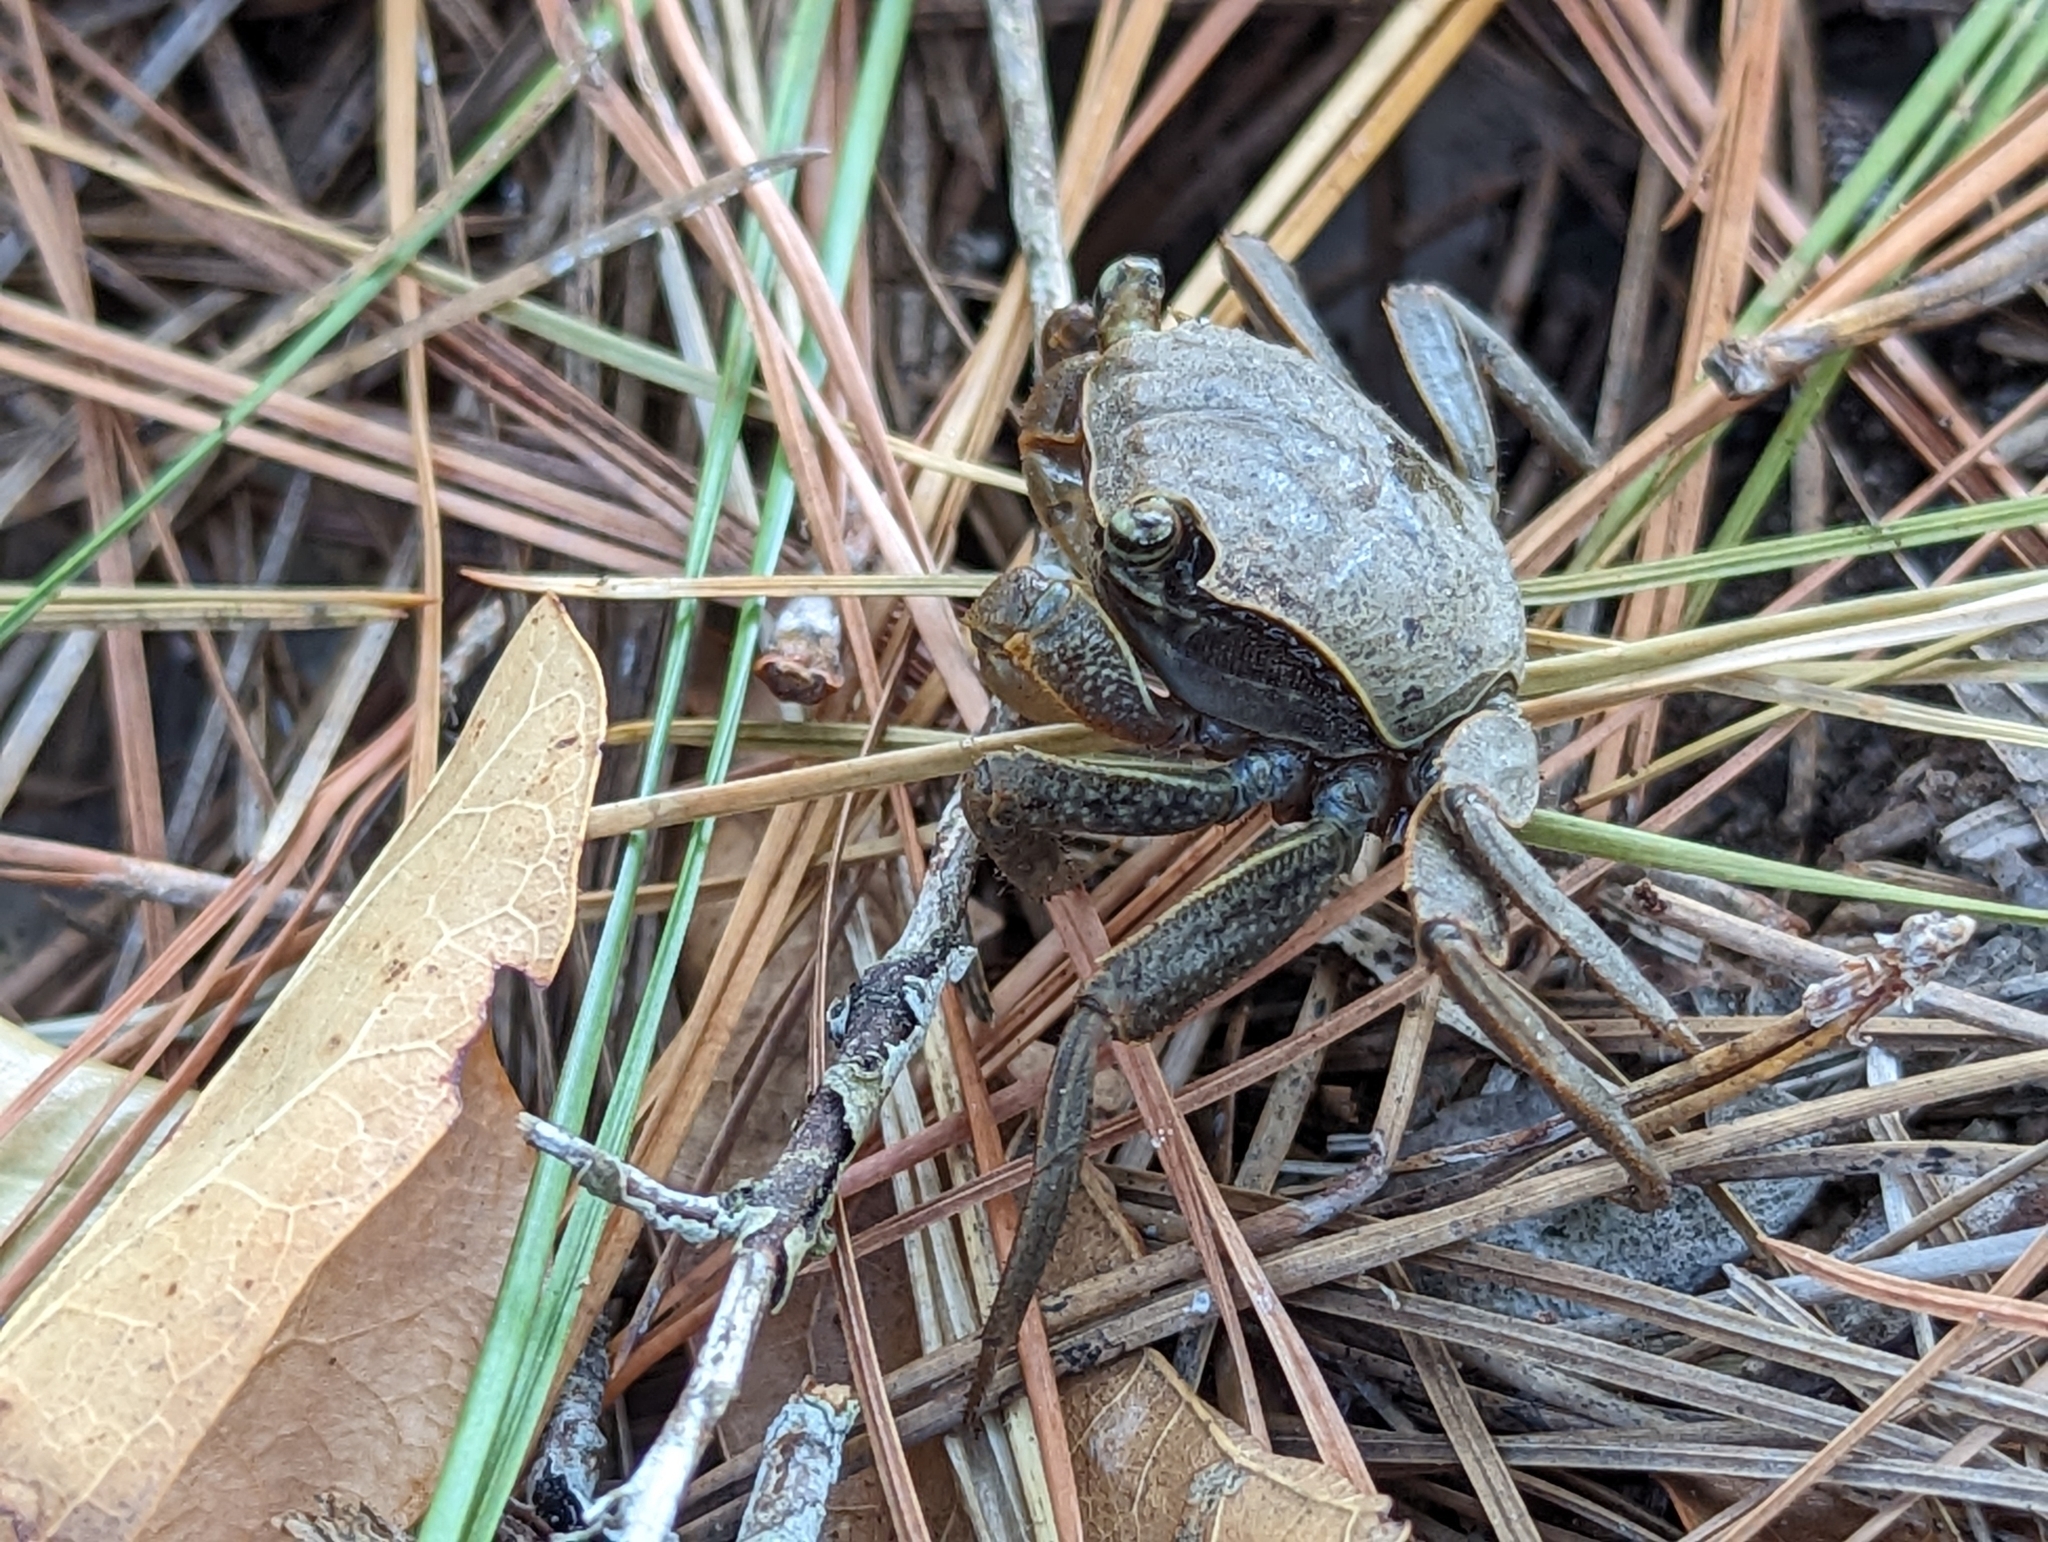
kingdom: Animalia
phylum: Arthropoda
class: Malacostraca
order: Decapoda
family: Sesarmidae
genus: Armases
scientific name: Armases cinereum
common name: Squareback marsh crab
